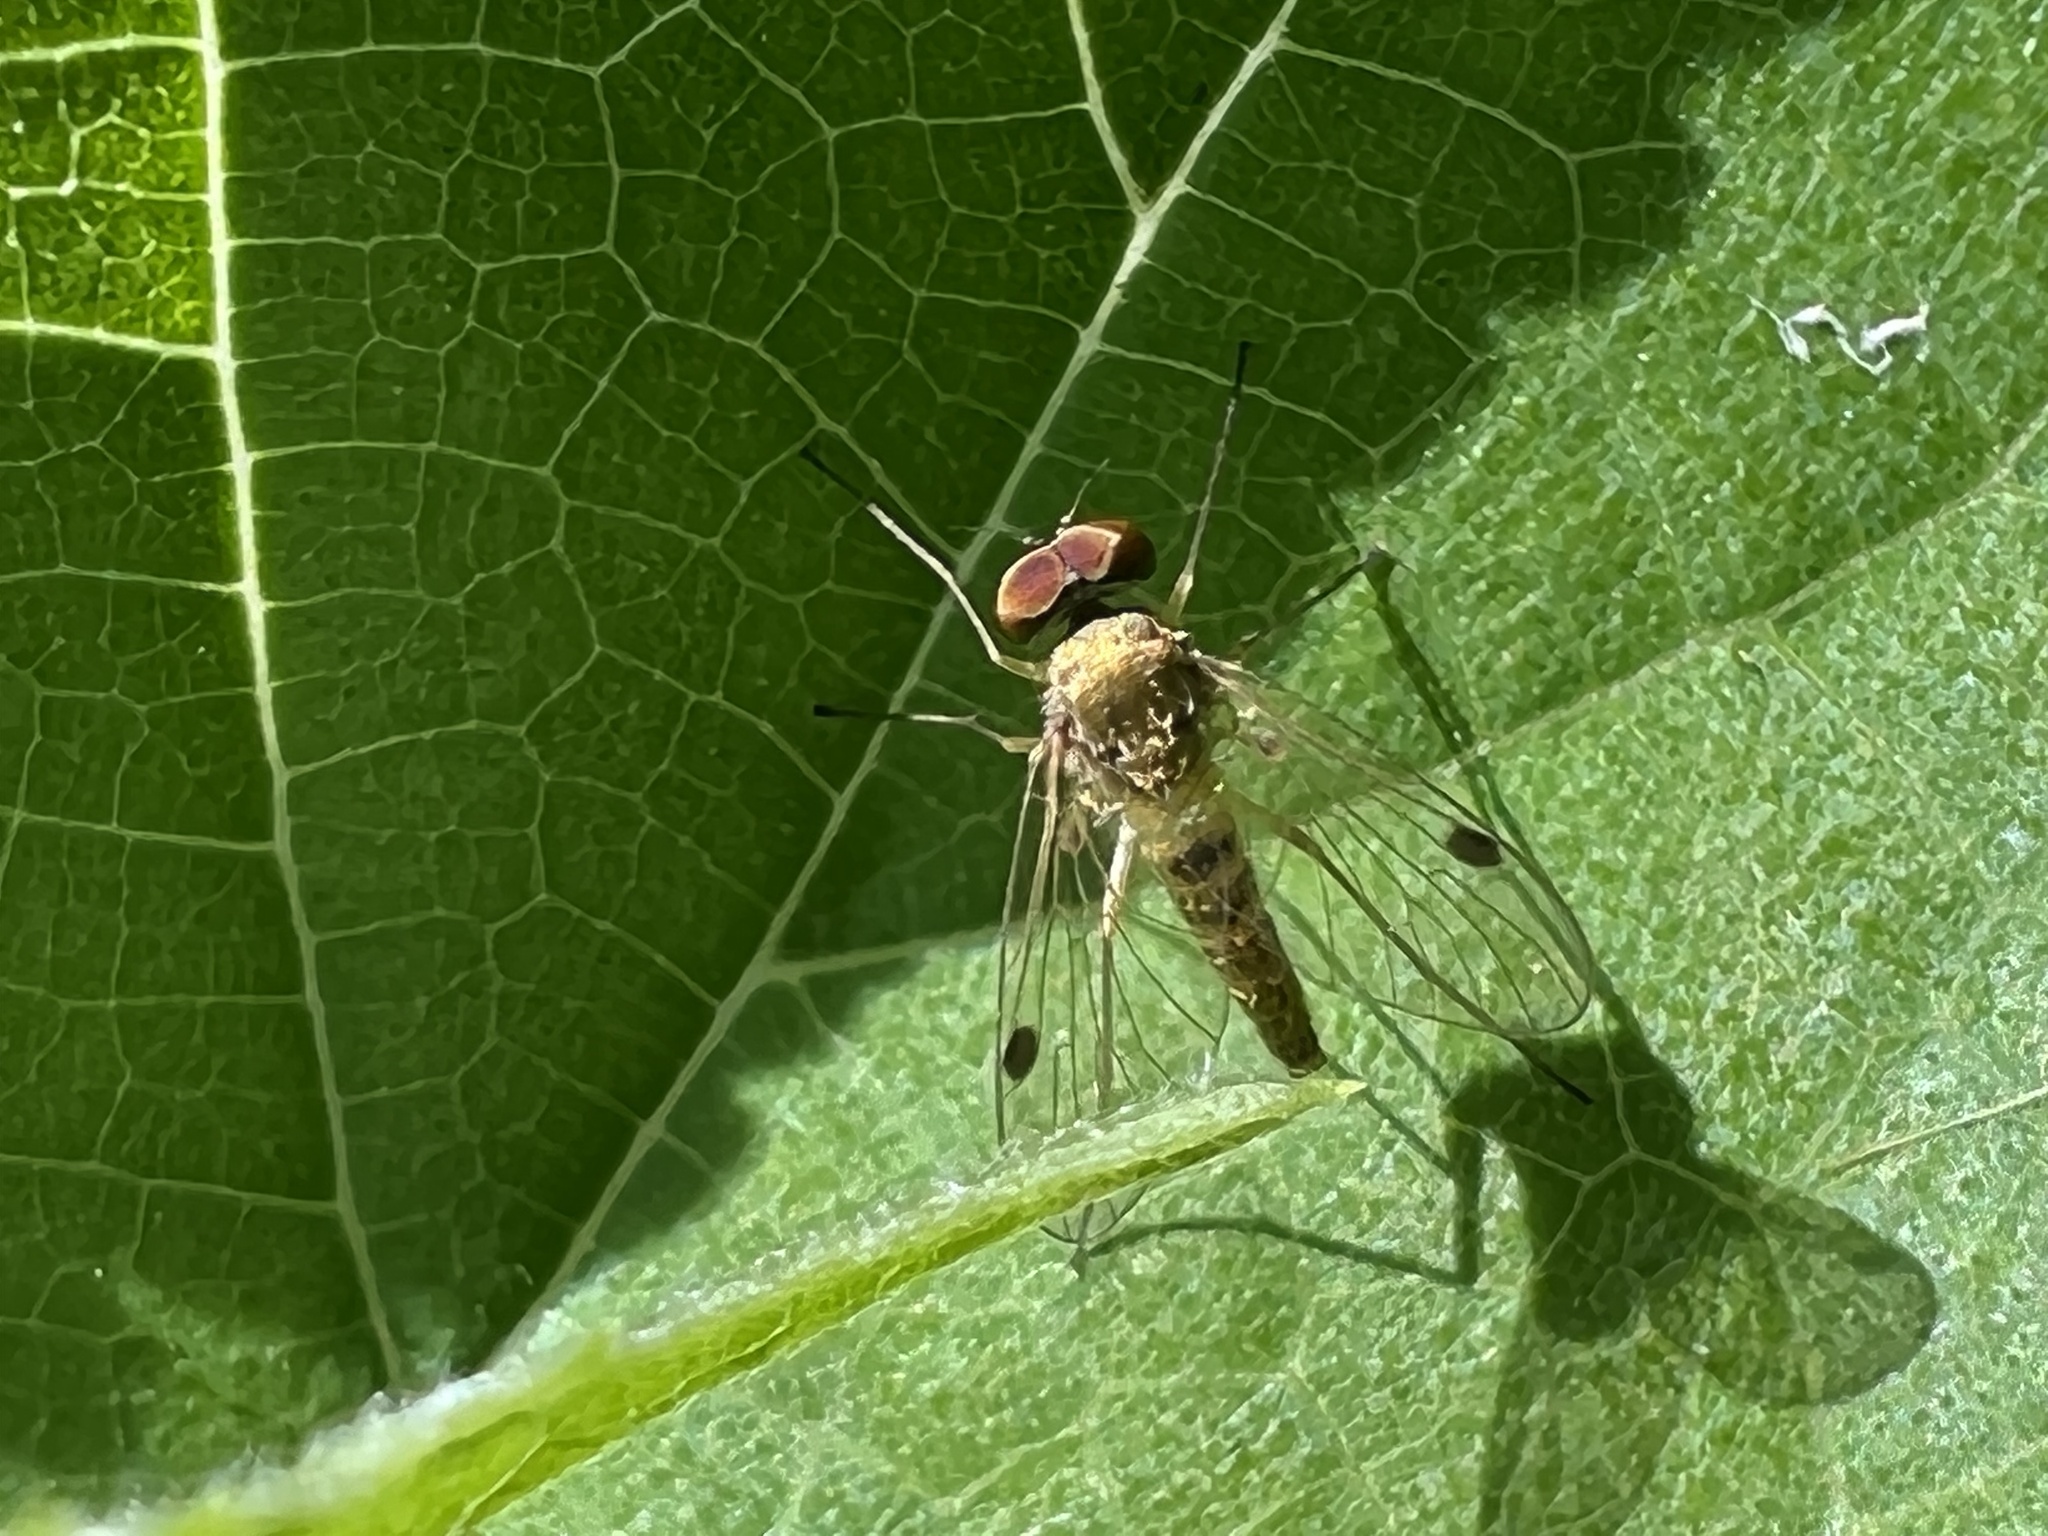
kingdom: Animalia
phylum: Arthropoda
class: Insecta
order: Diptera
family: Rhagionidae
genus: Chrysopilus
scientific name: Chrysopilus modestus
